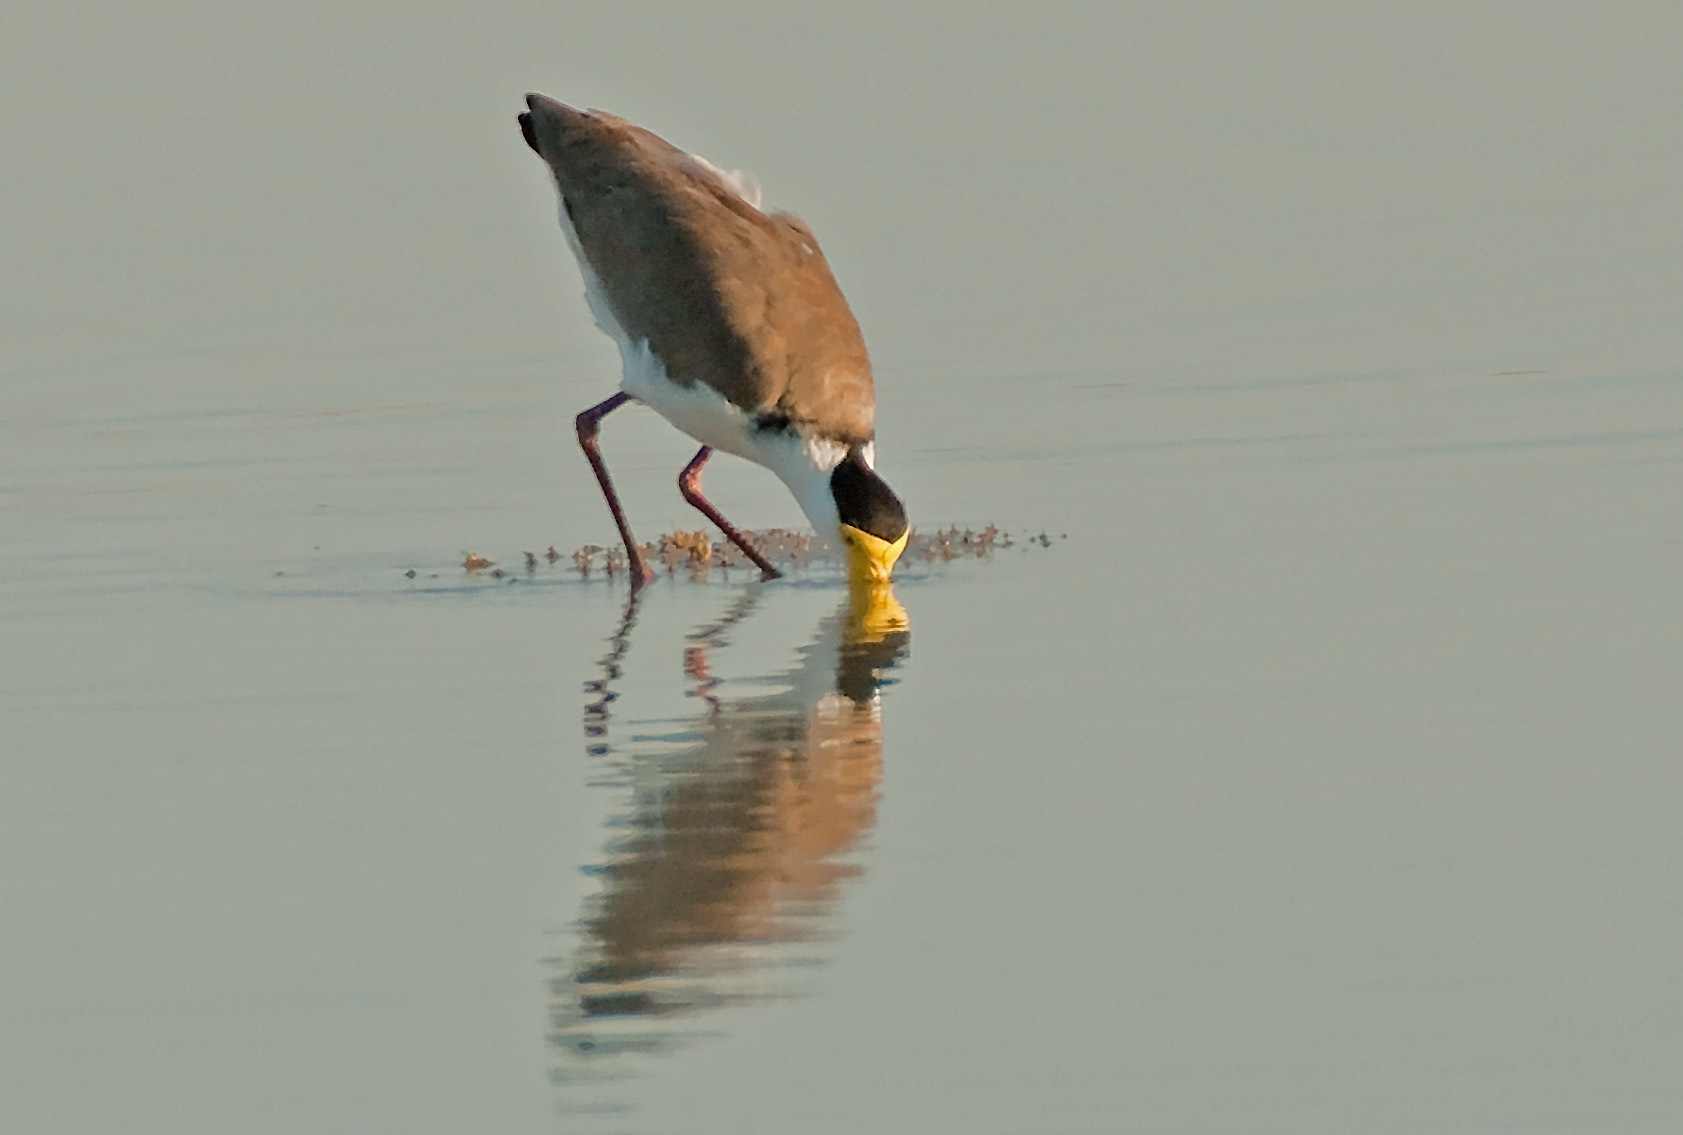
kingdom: Animalia
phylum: Chordata
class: Aves
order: Charadriiformes
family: Charadriidae
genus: Vanellus
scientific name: Vanellus miles
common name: Masked lapwing
